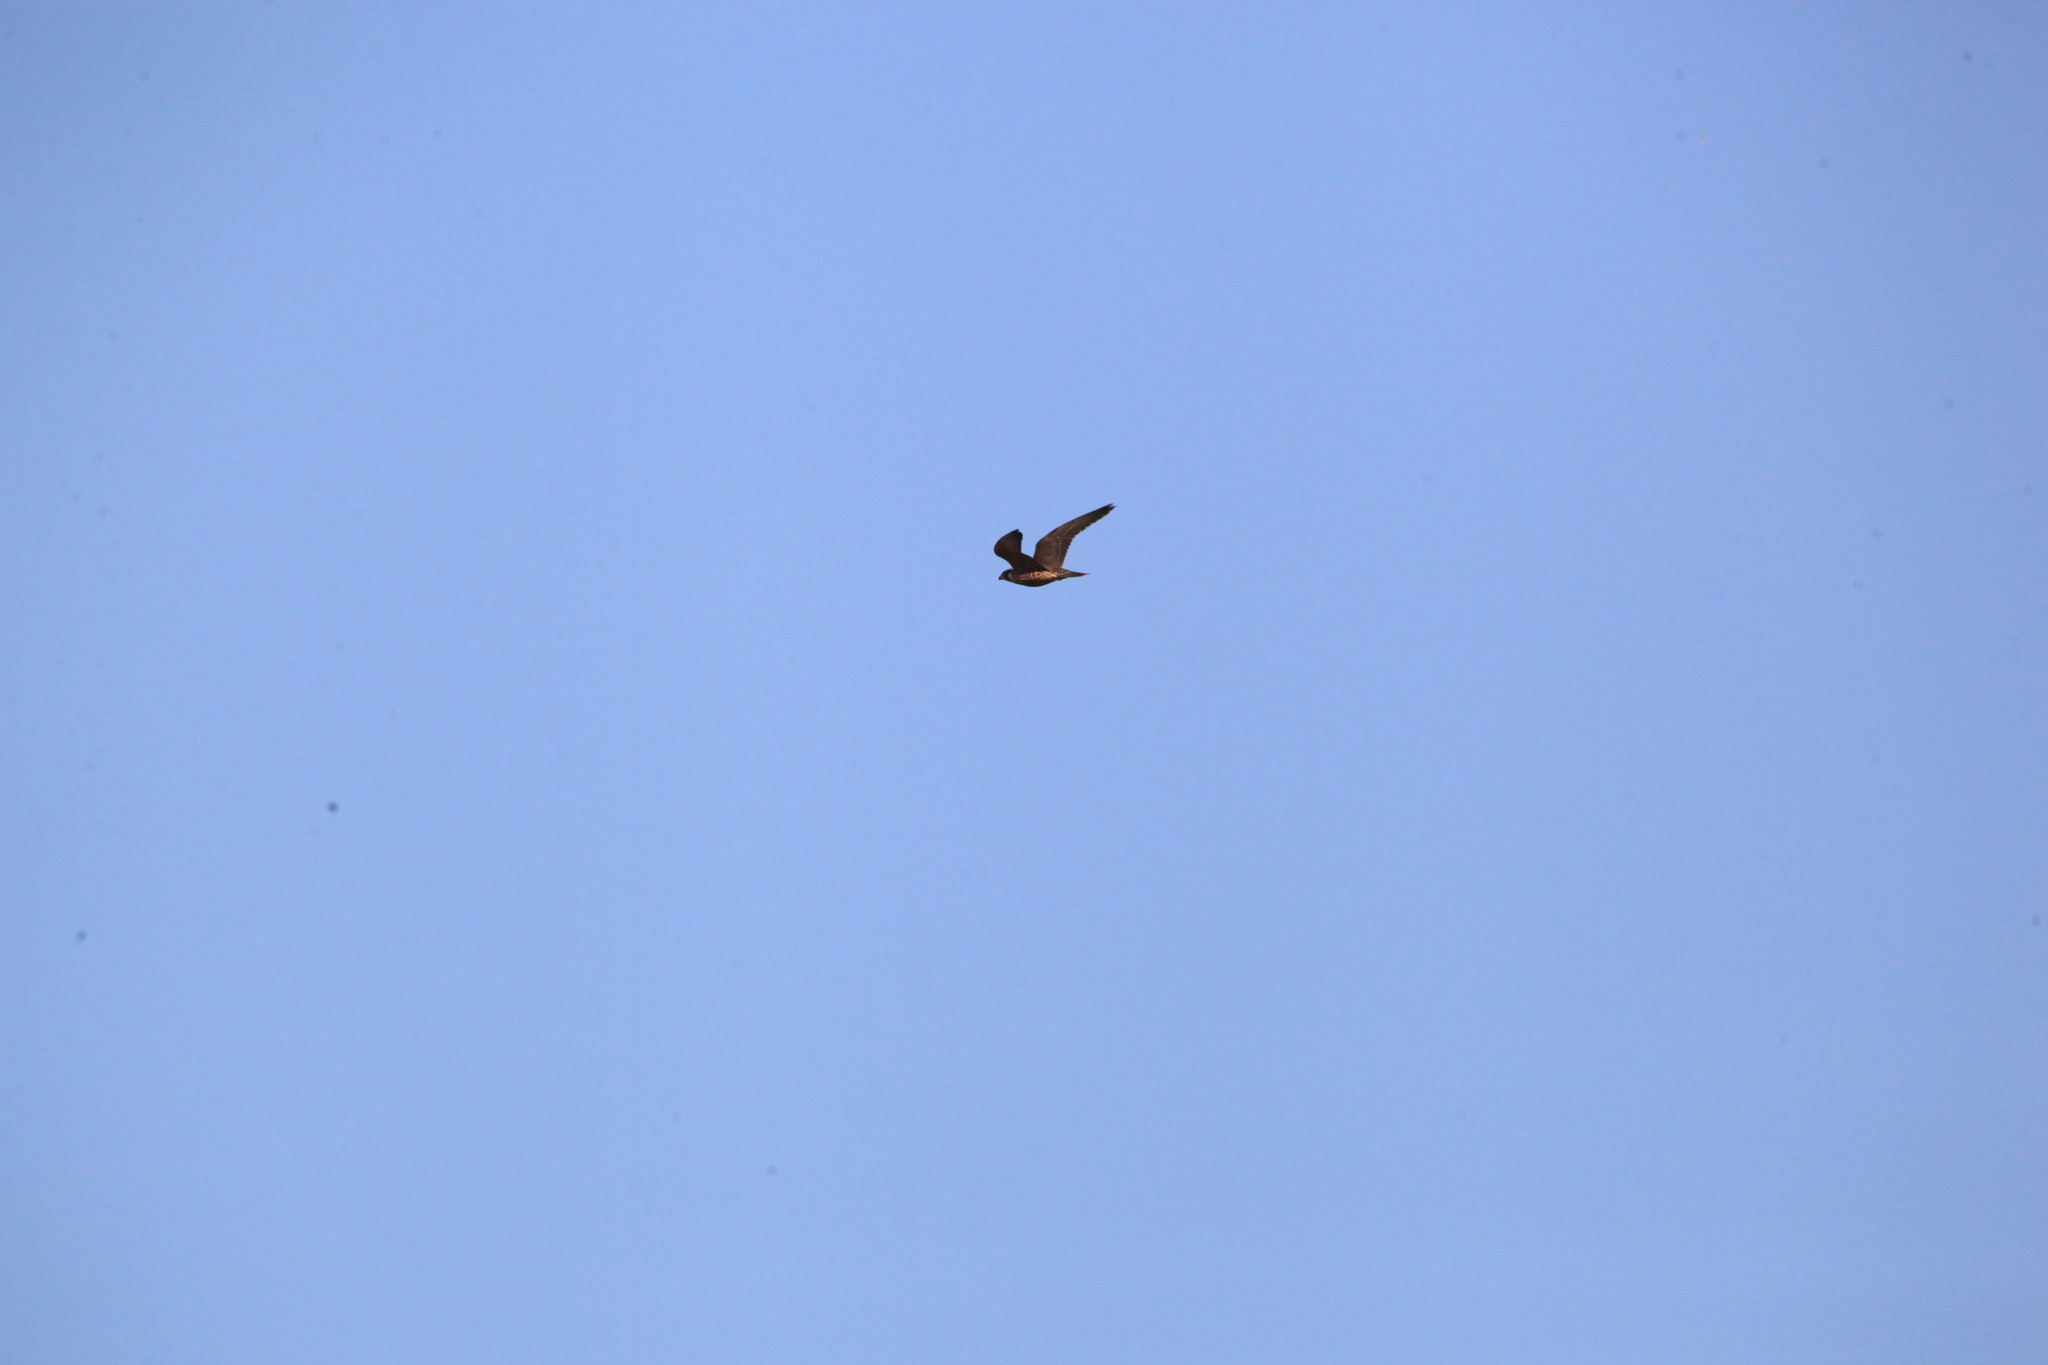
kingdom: Animalia
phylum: Chordata
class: Aves
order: Falconiformes
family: Falconidae
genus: Falco
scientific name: Falco peregrinus
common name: Peregrine falcon
